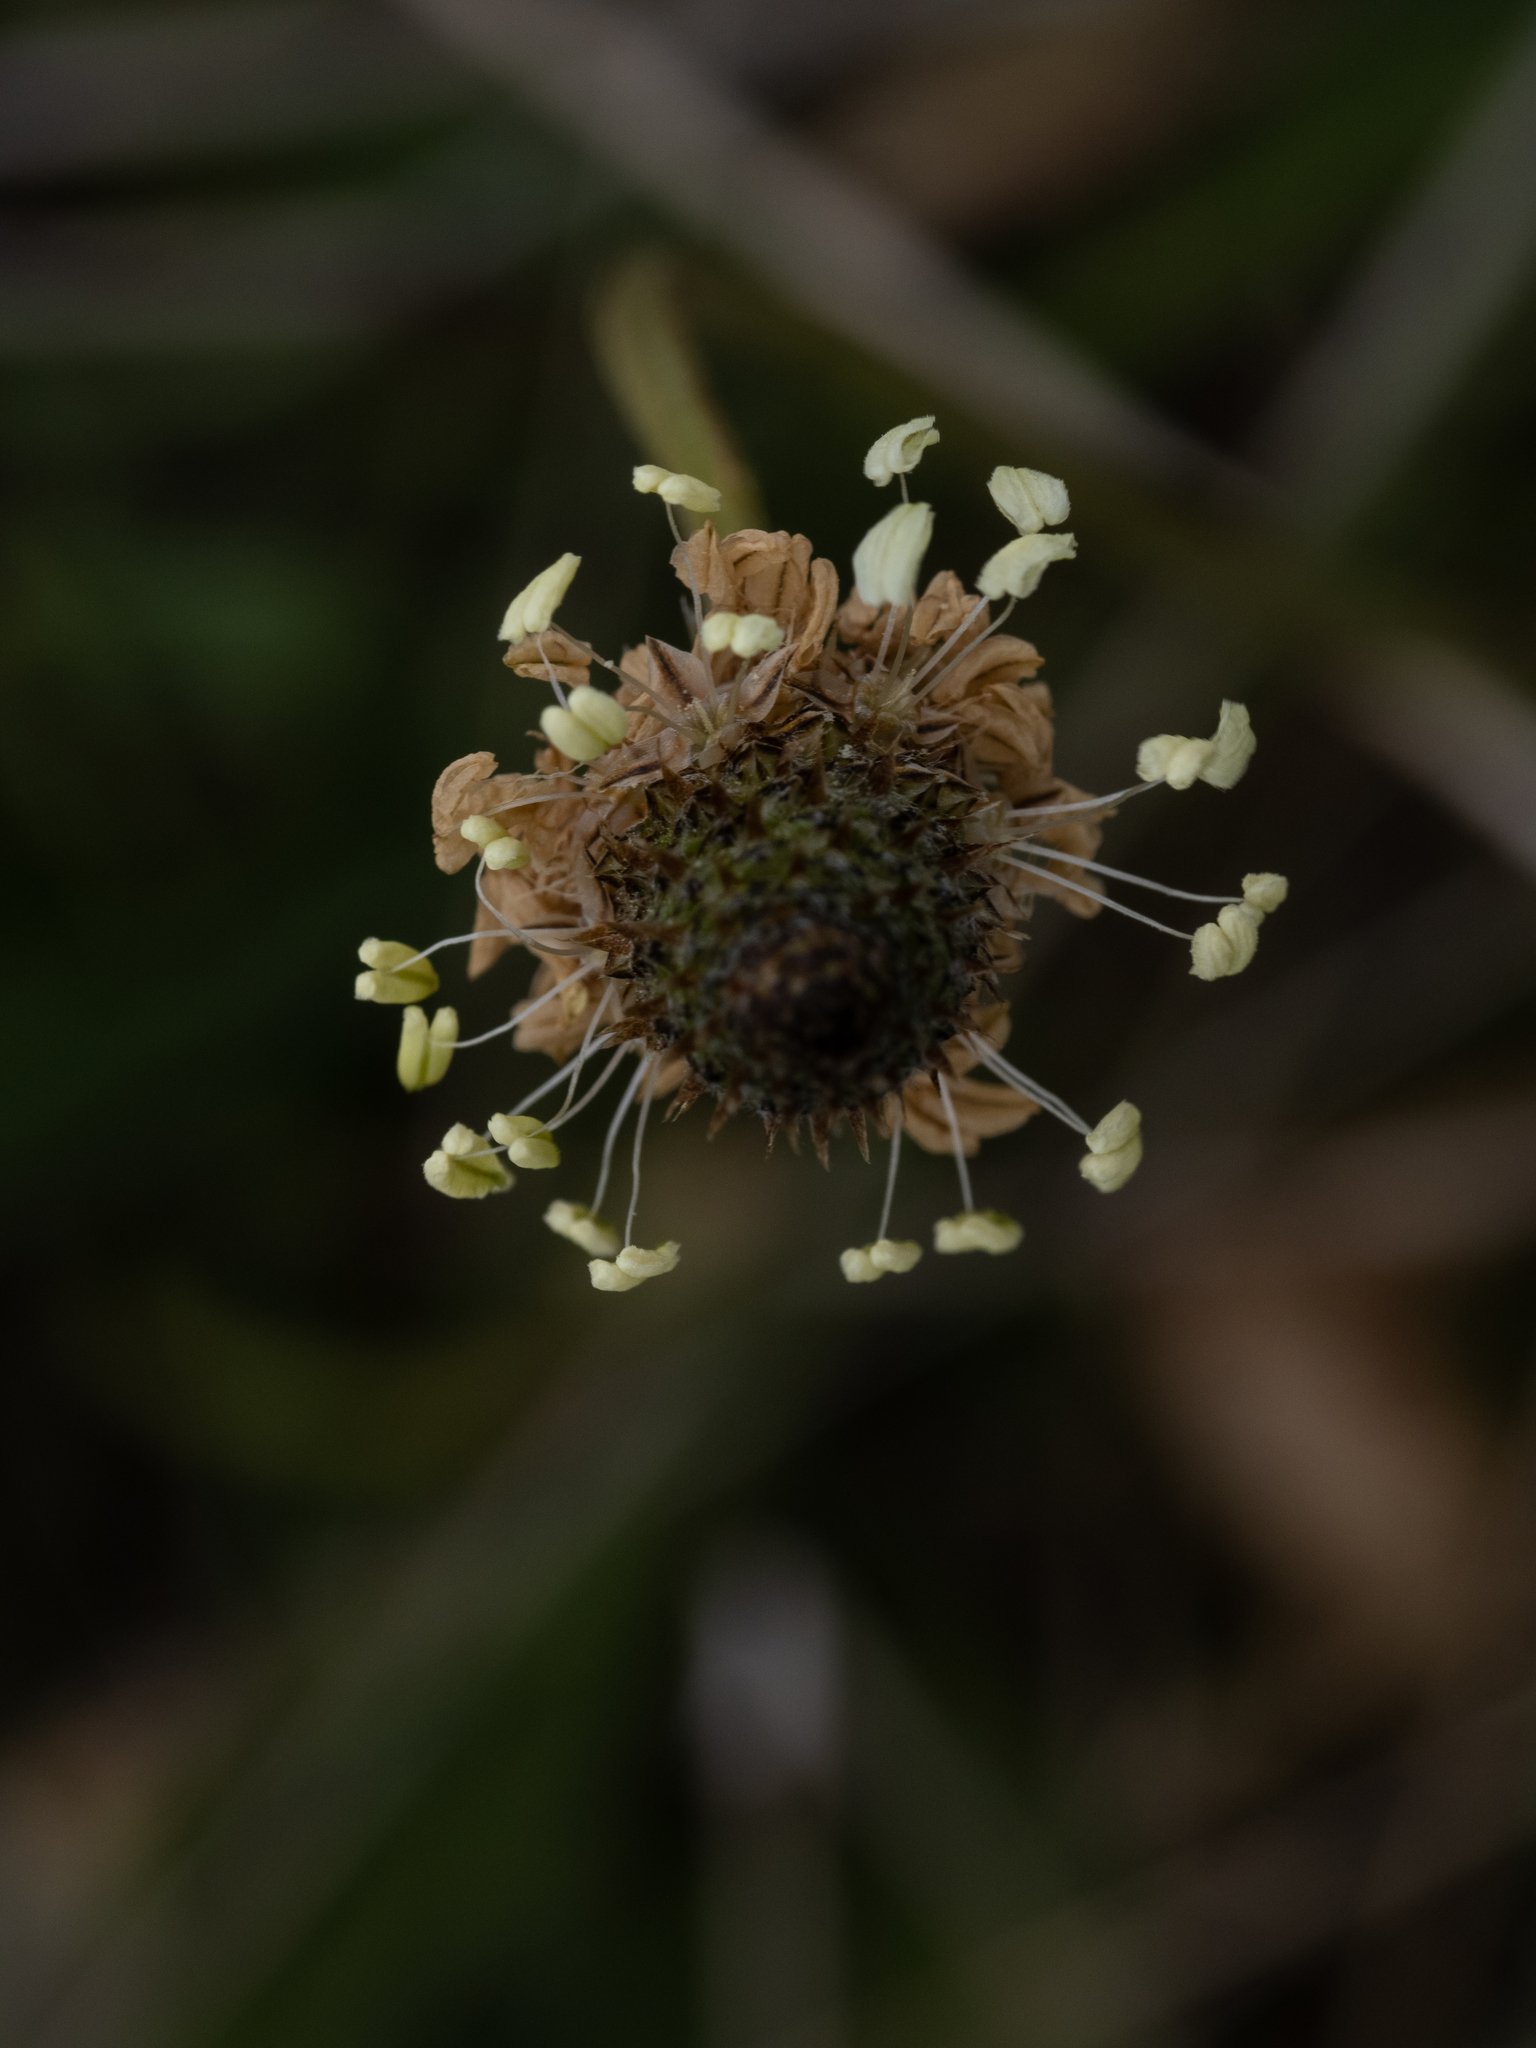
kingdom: Plantae
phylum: Tracheophyta
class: Magnoliopsida
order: Lamiales
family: Plantaginaceae
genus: Plantago
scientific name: Plantago lanceolata
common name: Ribwort plantain
